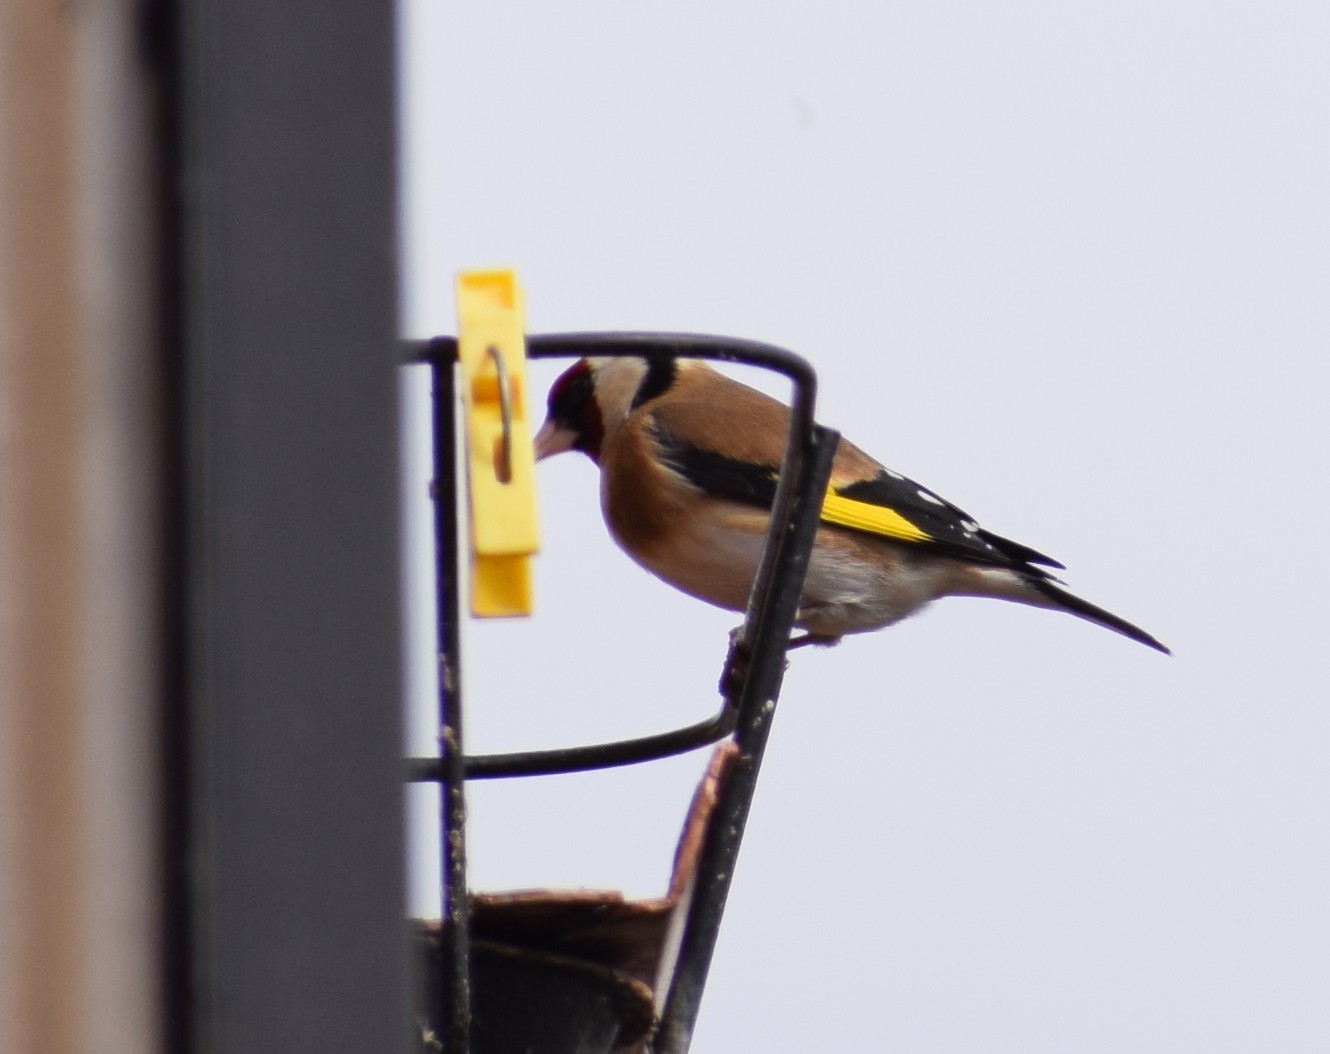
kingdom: Animalia
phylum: Chordata
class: Aves
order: Passeriformes
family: Fringillidae
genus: Carduelis
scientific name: Carduelis carduelis
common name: European goldfinch
